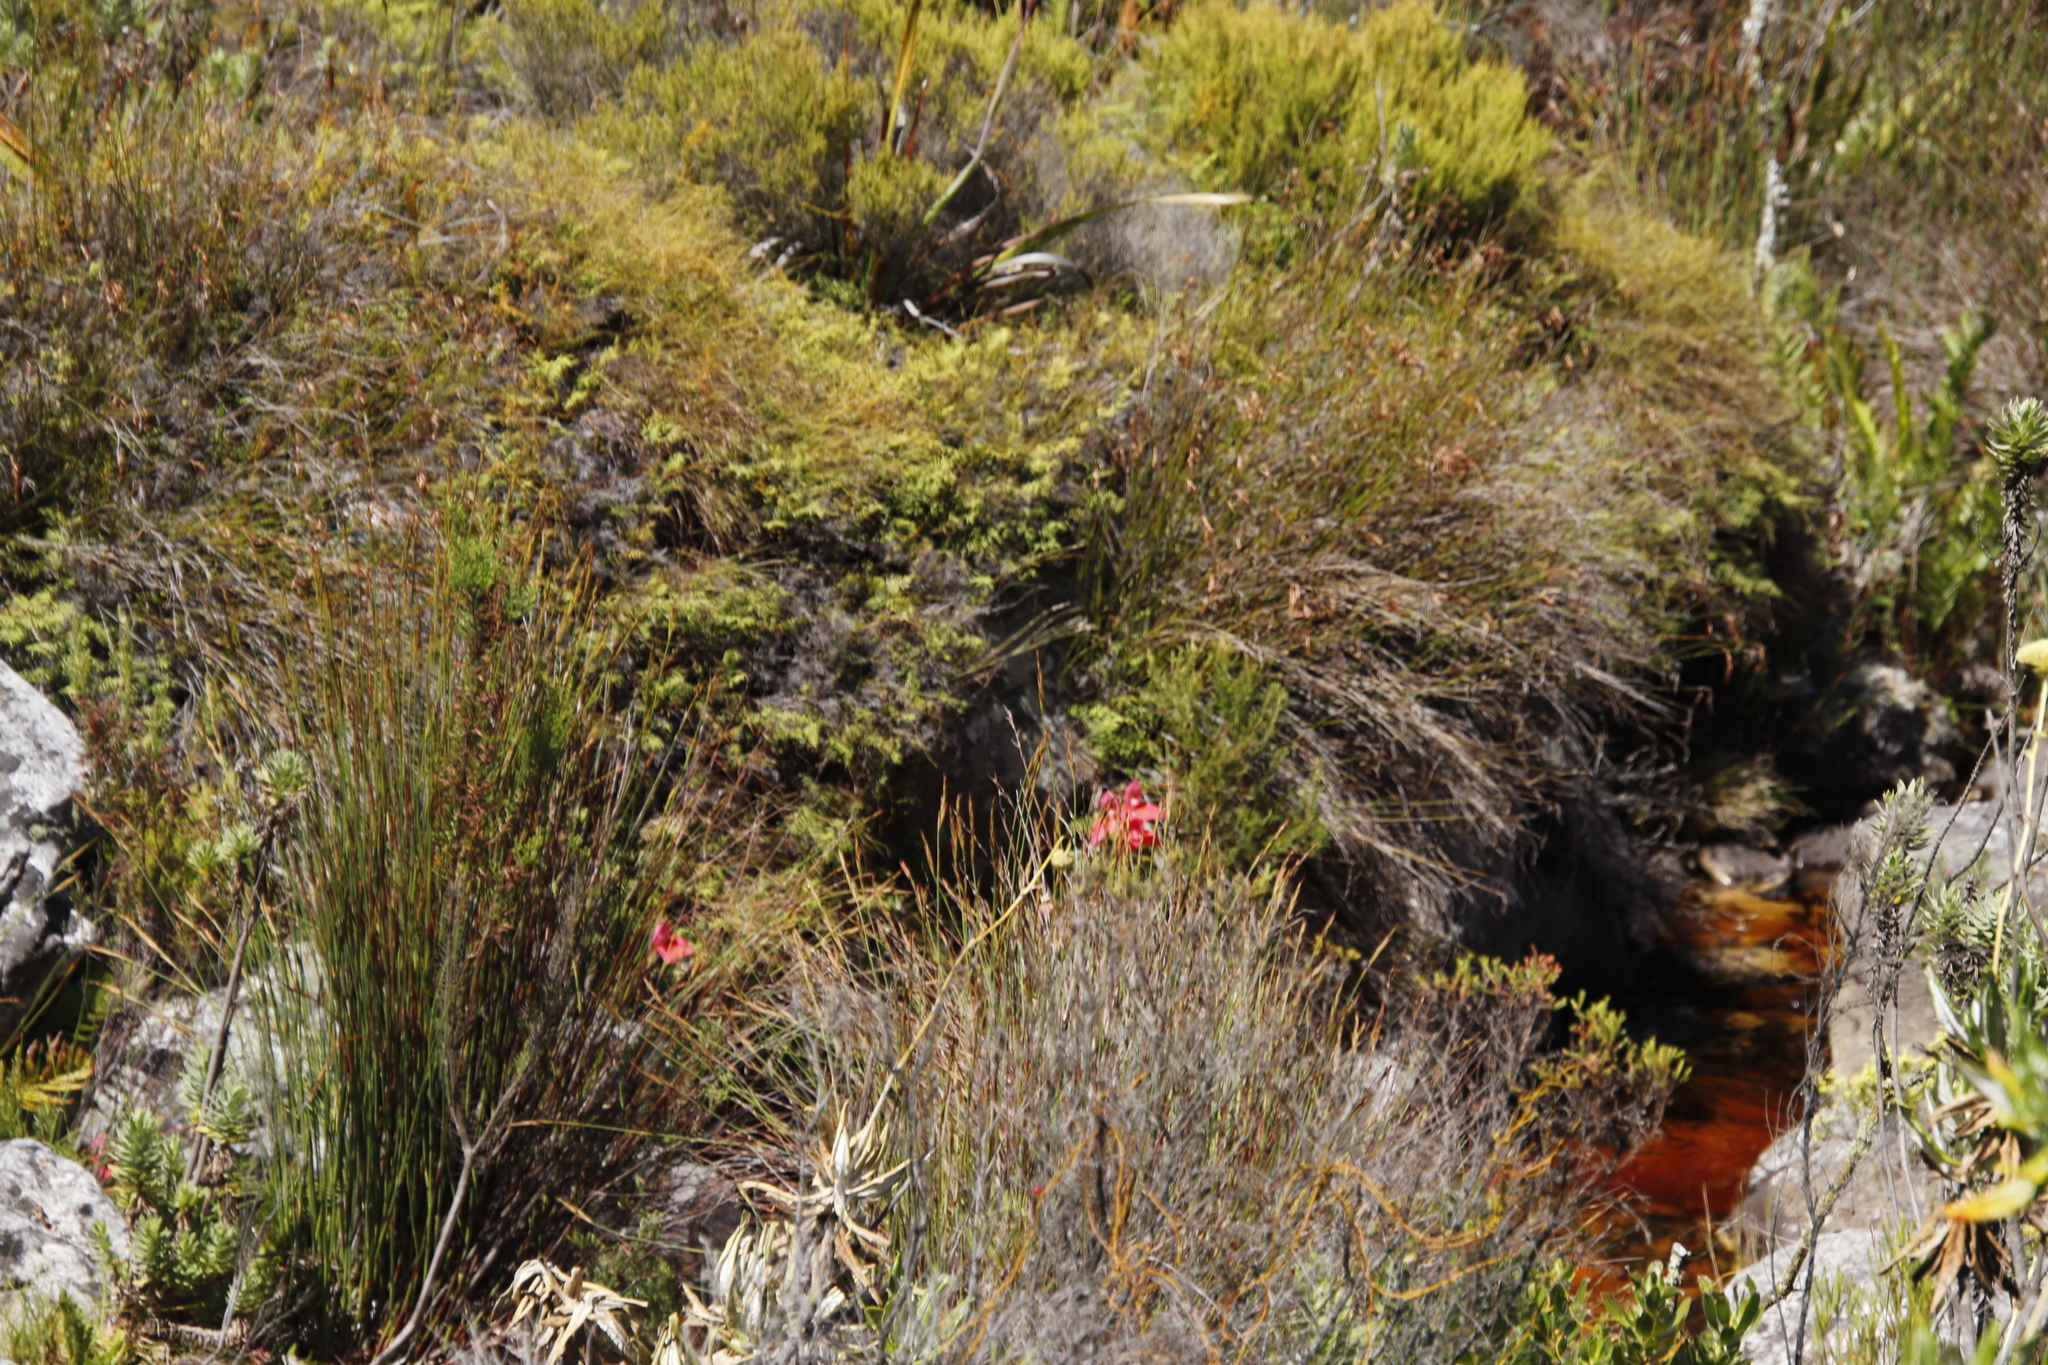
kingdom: Plantae
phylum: Tracheophyta
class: Liliopsida
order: Asparagales
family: Orchidaceae
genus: Disa
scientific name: Disa uniflora
